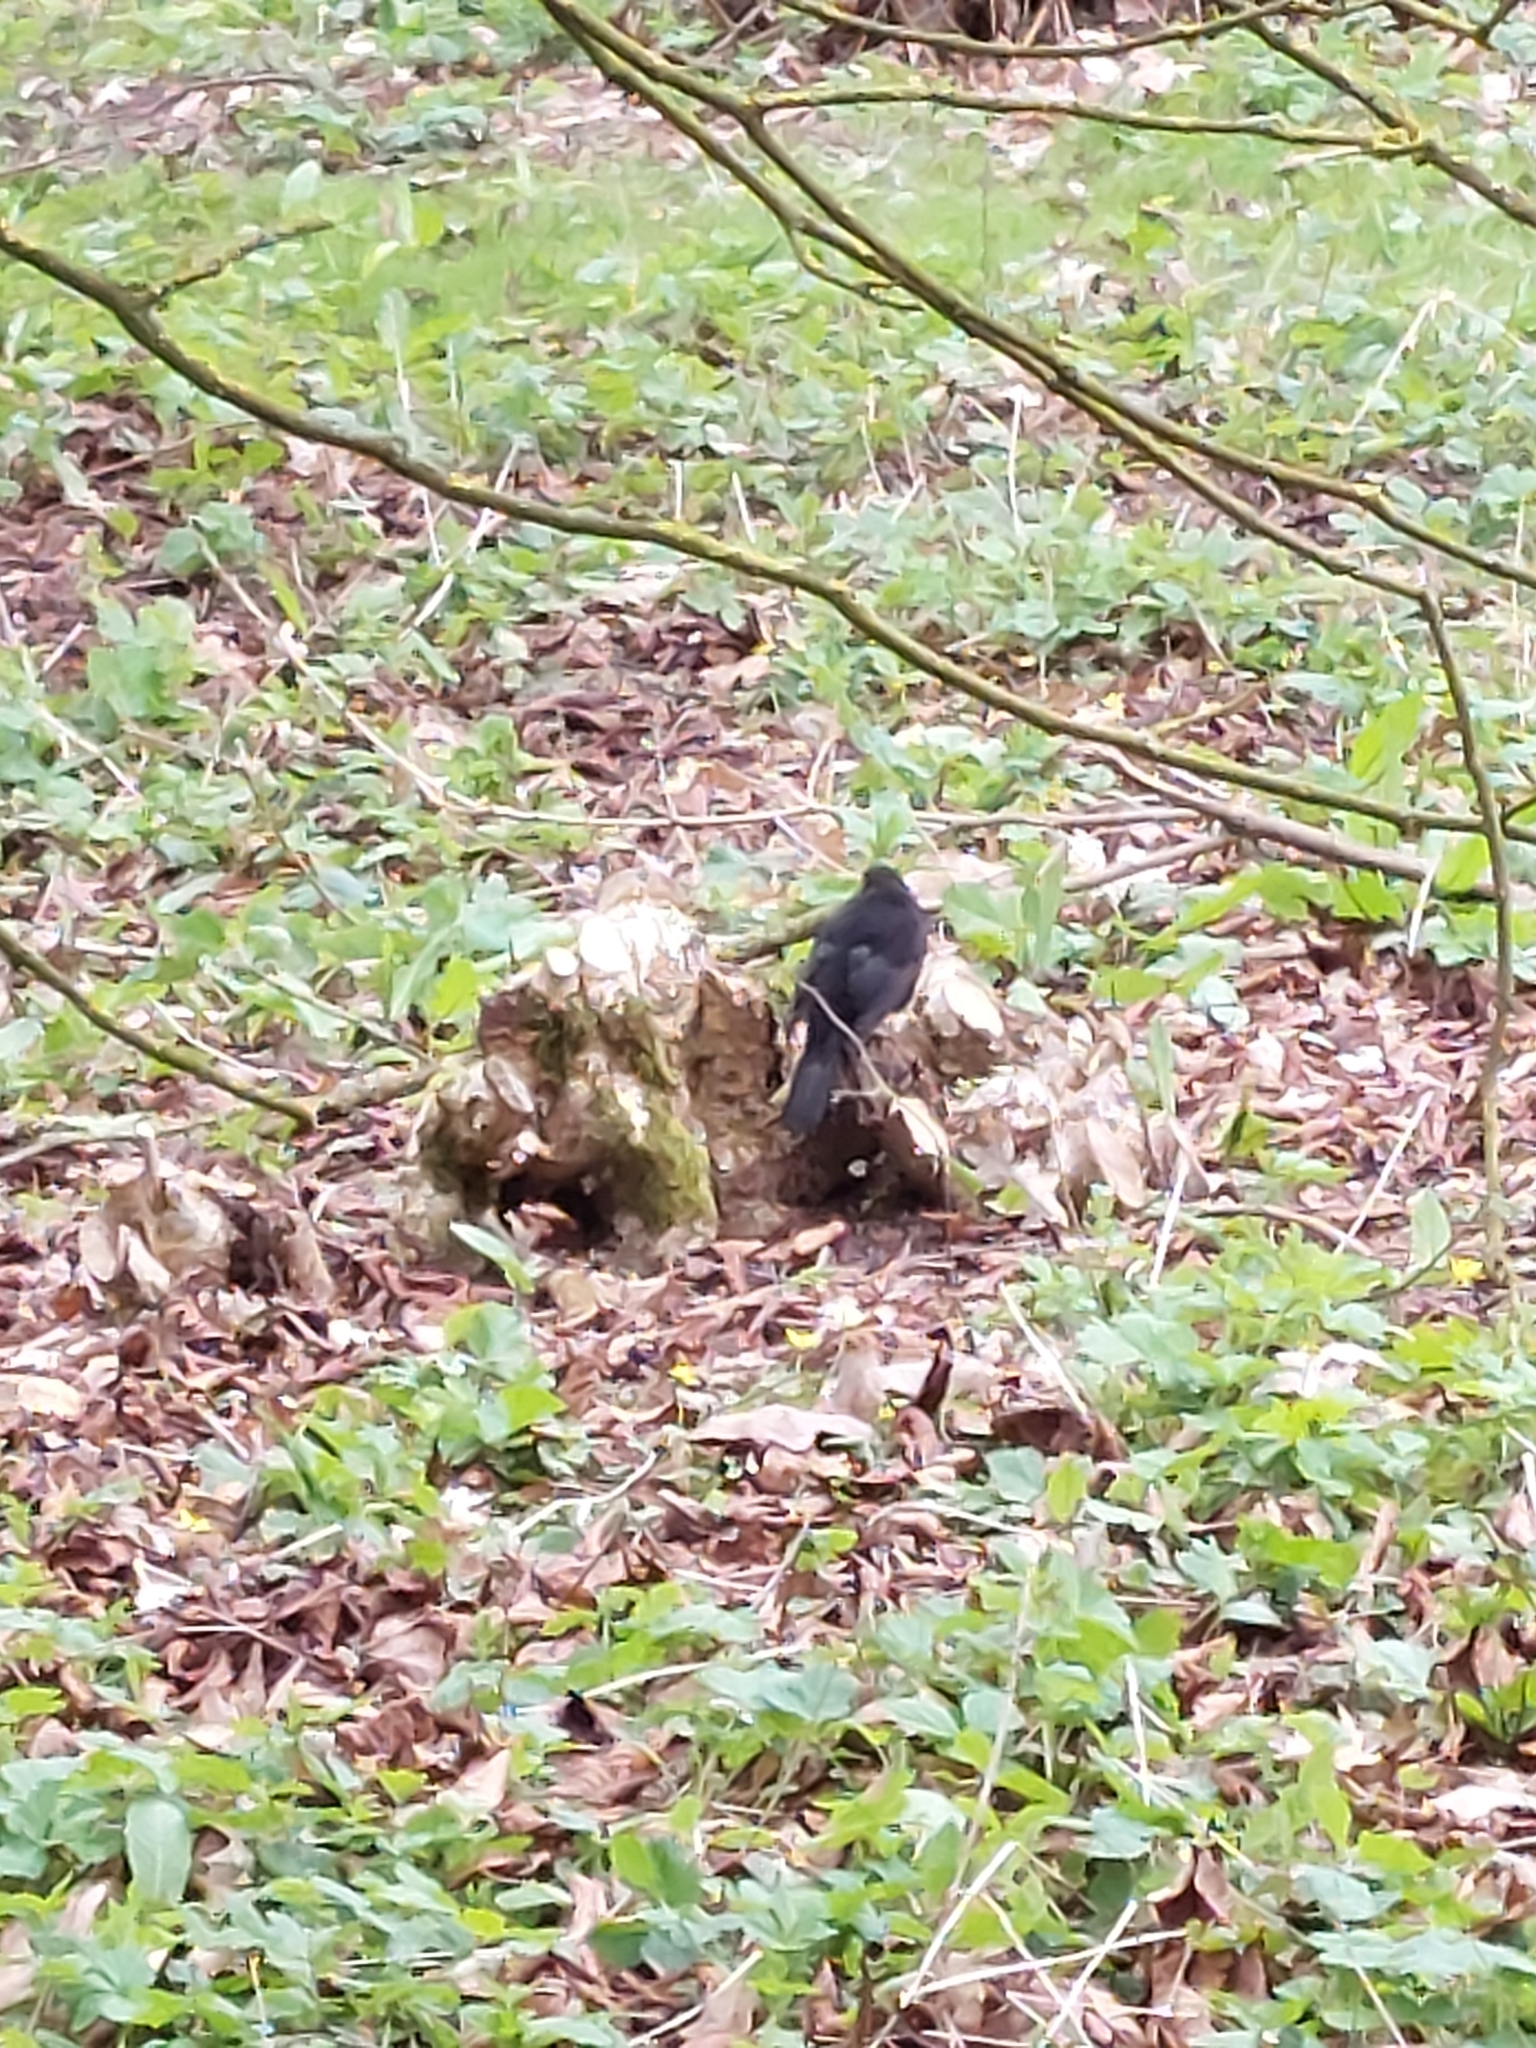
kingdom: Animalia
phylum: Chordata
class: Aves
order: Passeriformes
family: Turdidae
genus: Turdus
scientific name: Turdus merula
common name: Common blackbird
